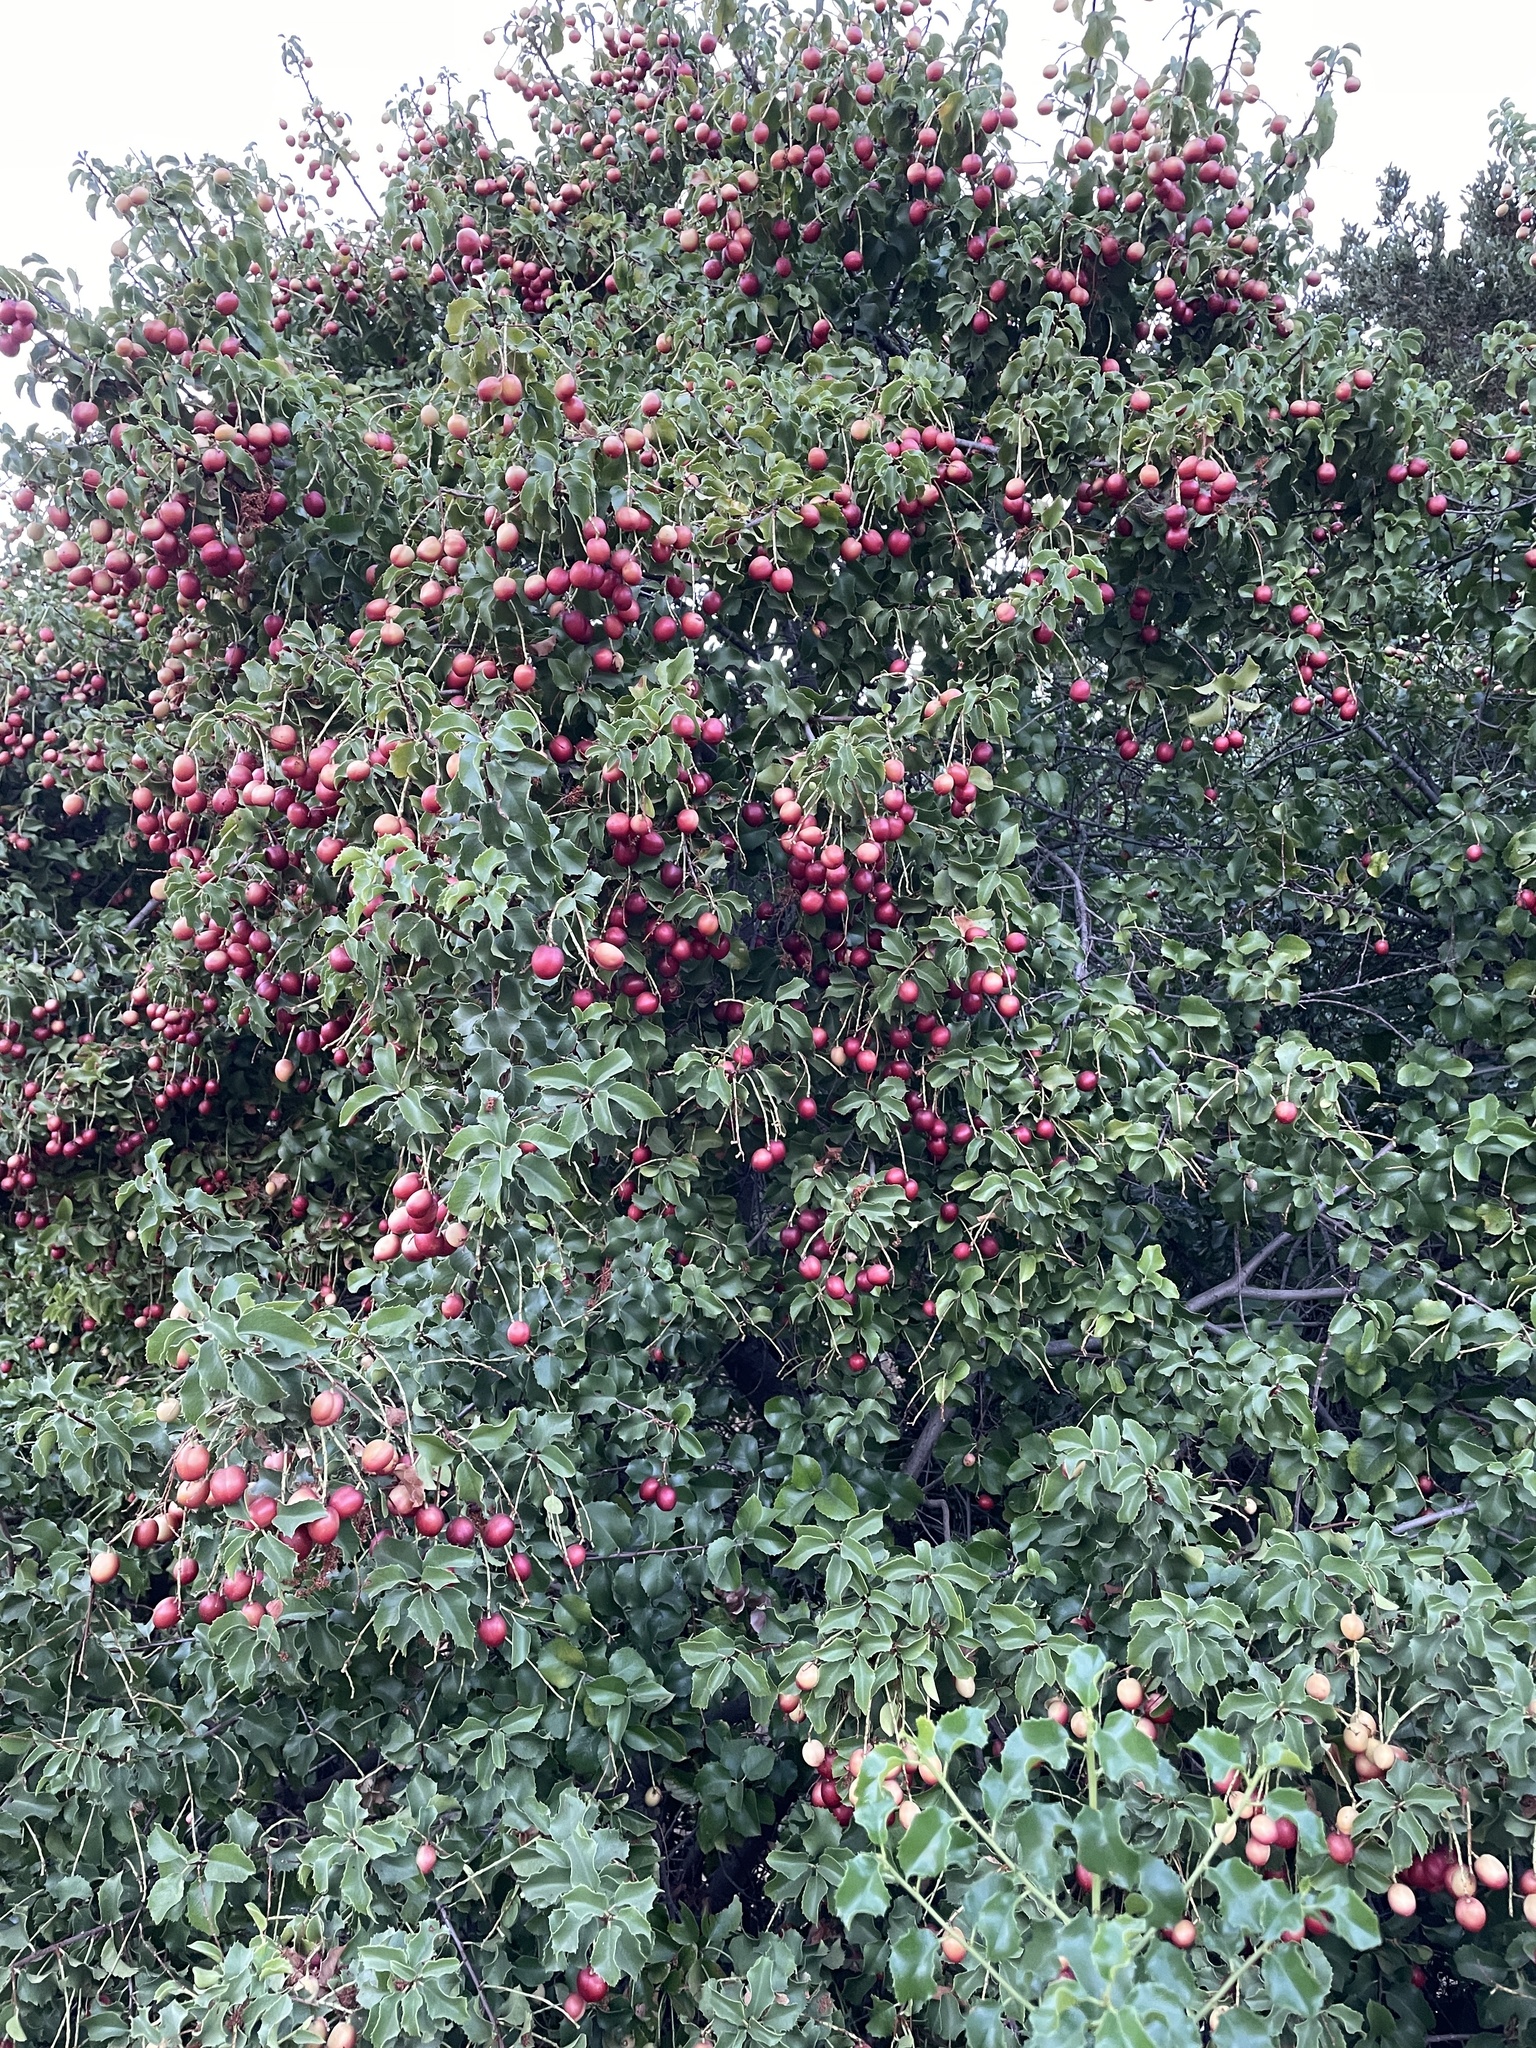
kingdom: Plantae
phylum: Tracheophyta
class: Magnoliopsida
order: Rosales
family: Rosaceae
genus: Prunus
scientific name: Prunus ilicifolia
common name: Hollyleaf cherry
